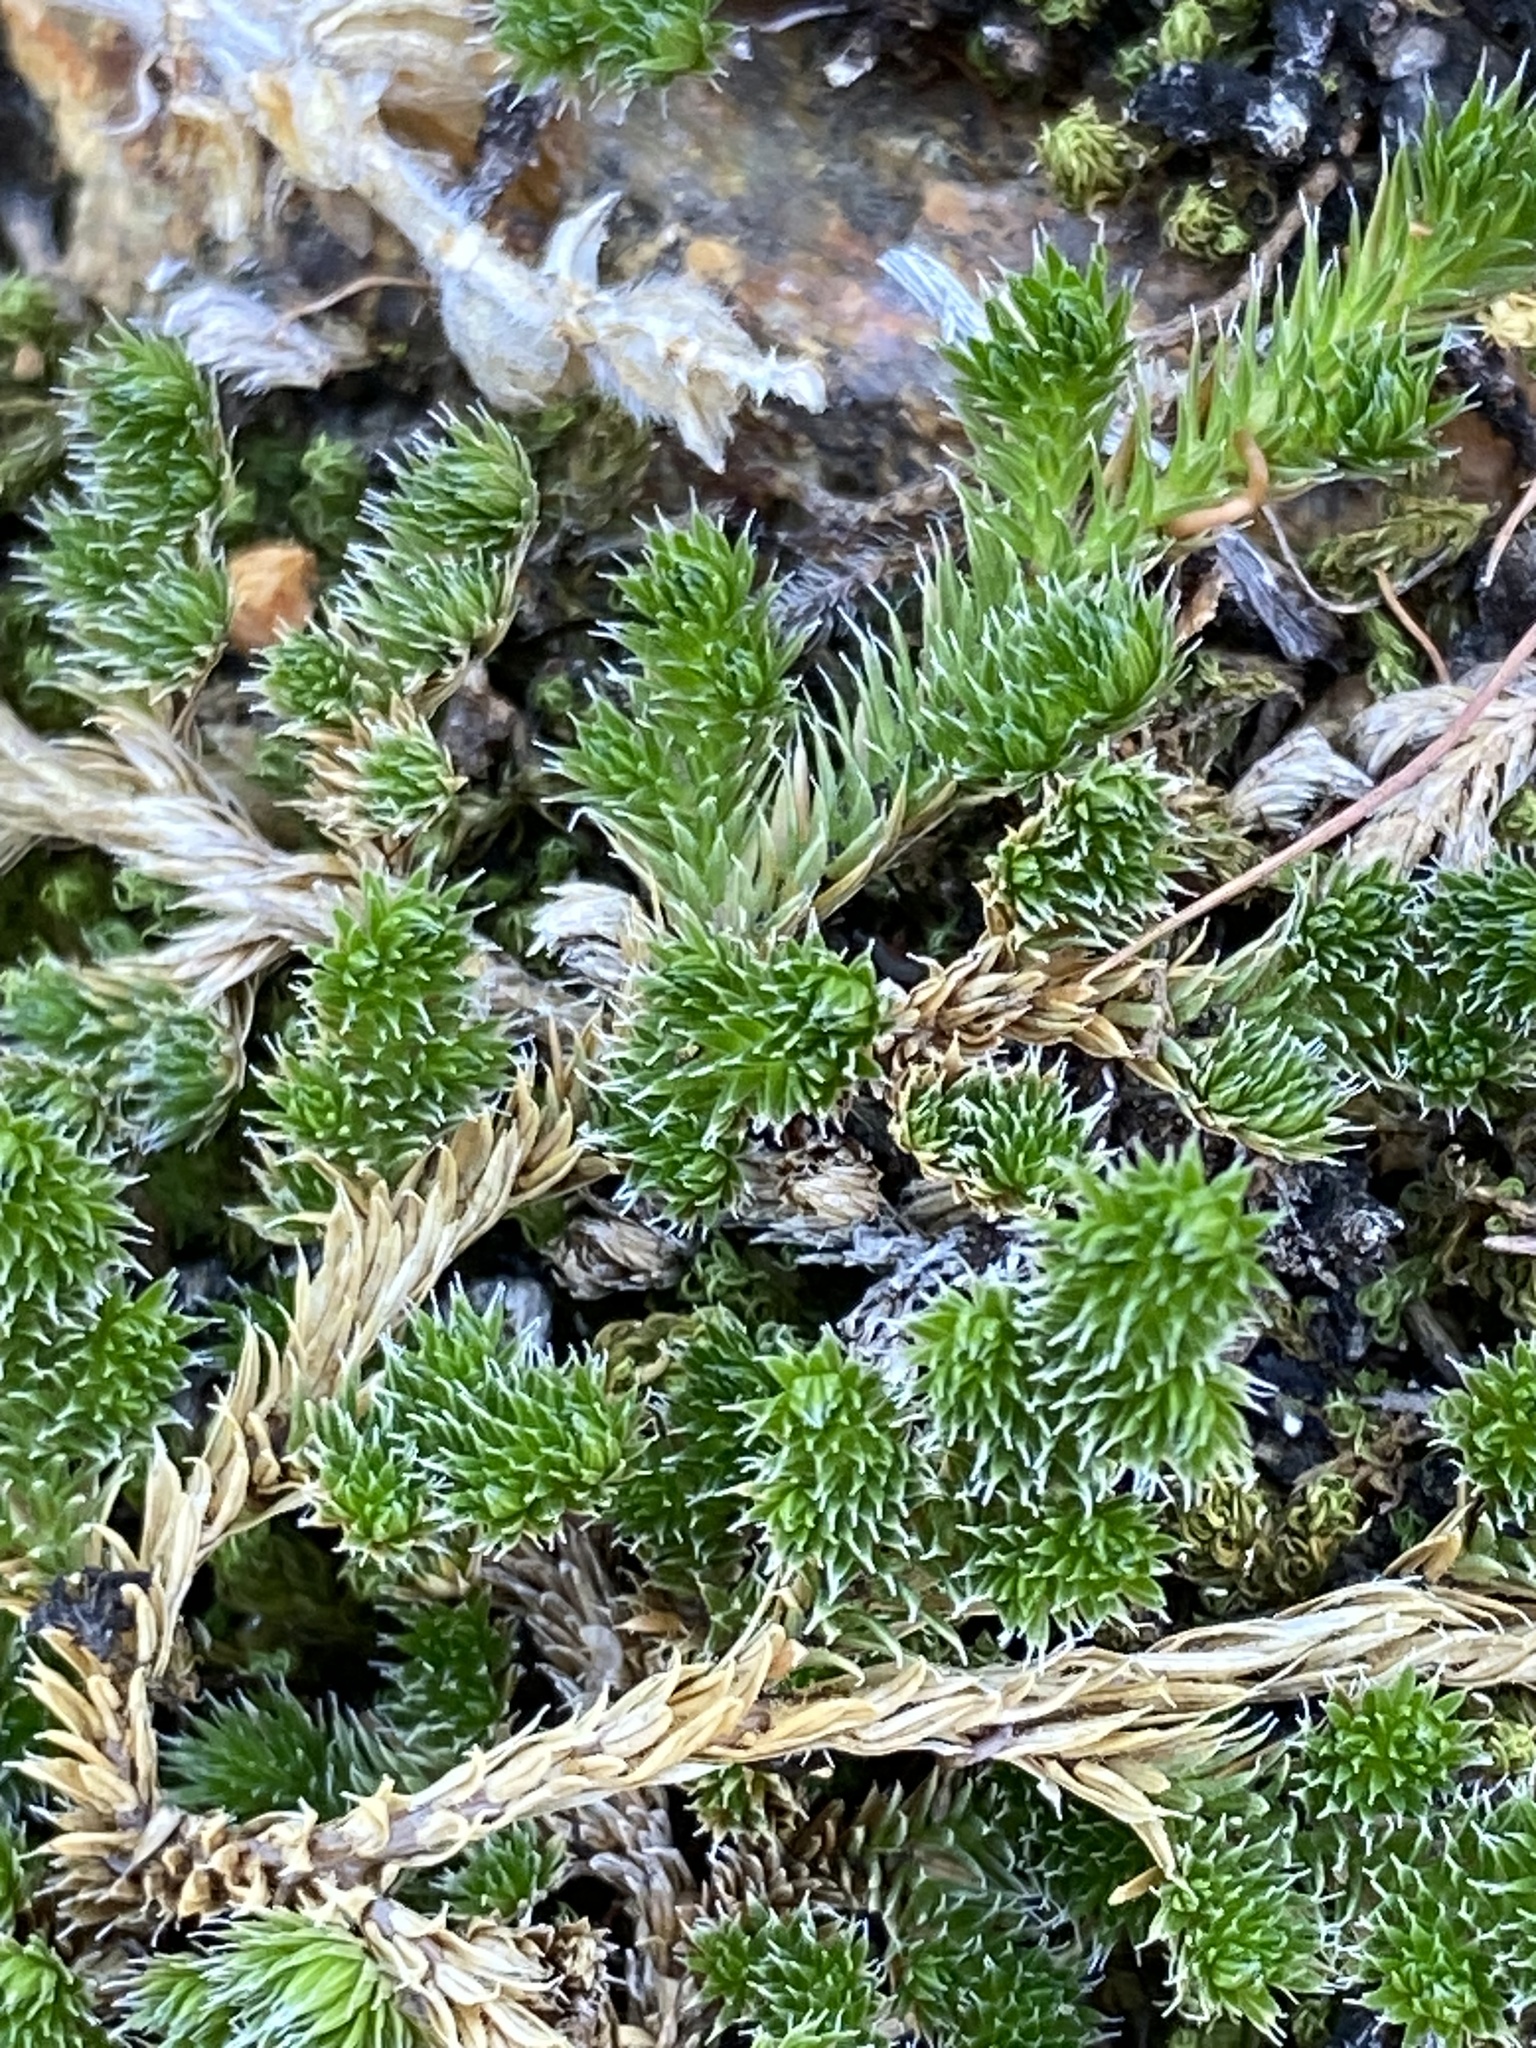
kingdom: Plantae
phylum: Tracheophyta
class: Lycopodiopsida
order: Selaginellales
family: Selaginellaceae
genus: Selaginella
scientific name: Selaginella peruviana
